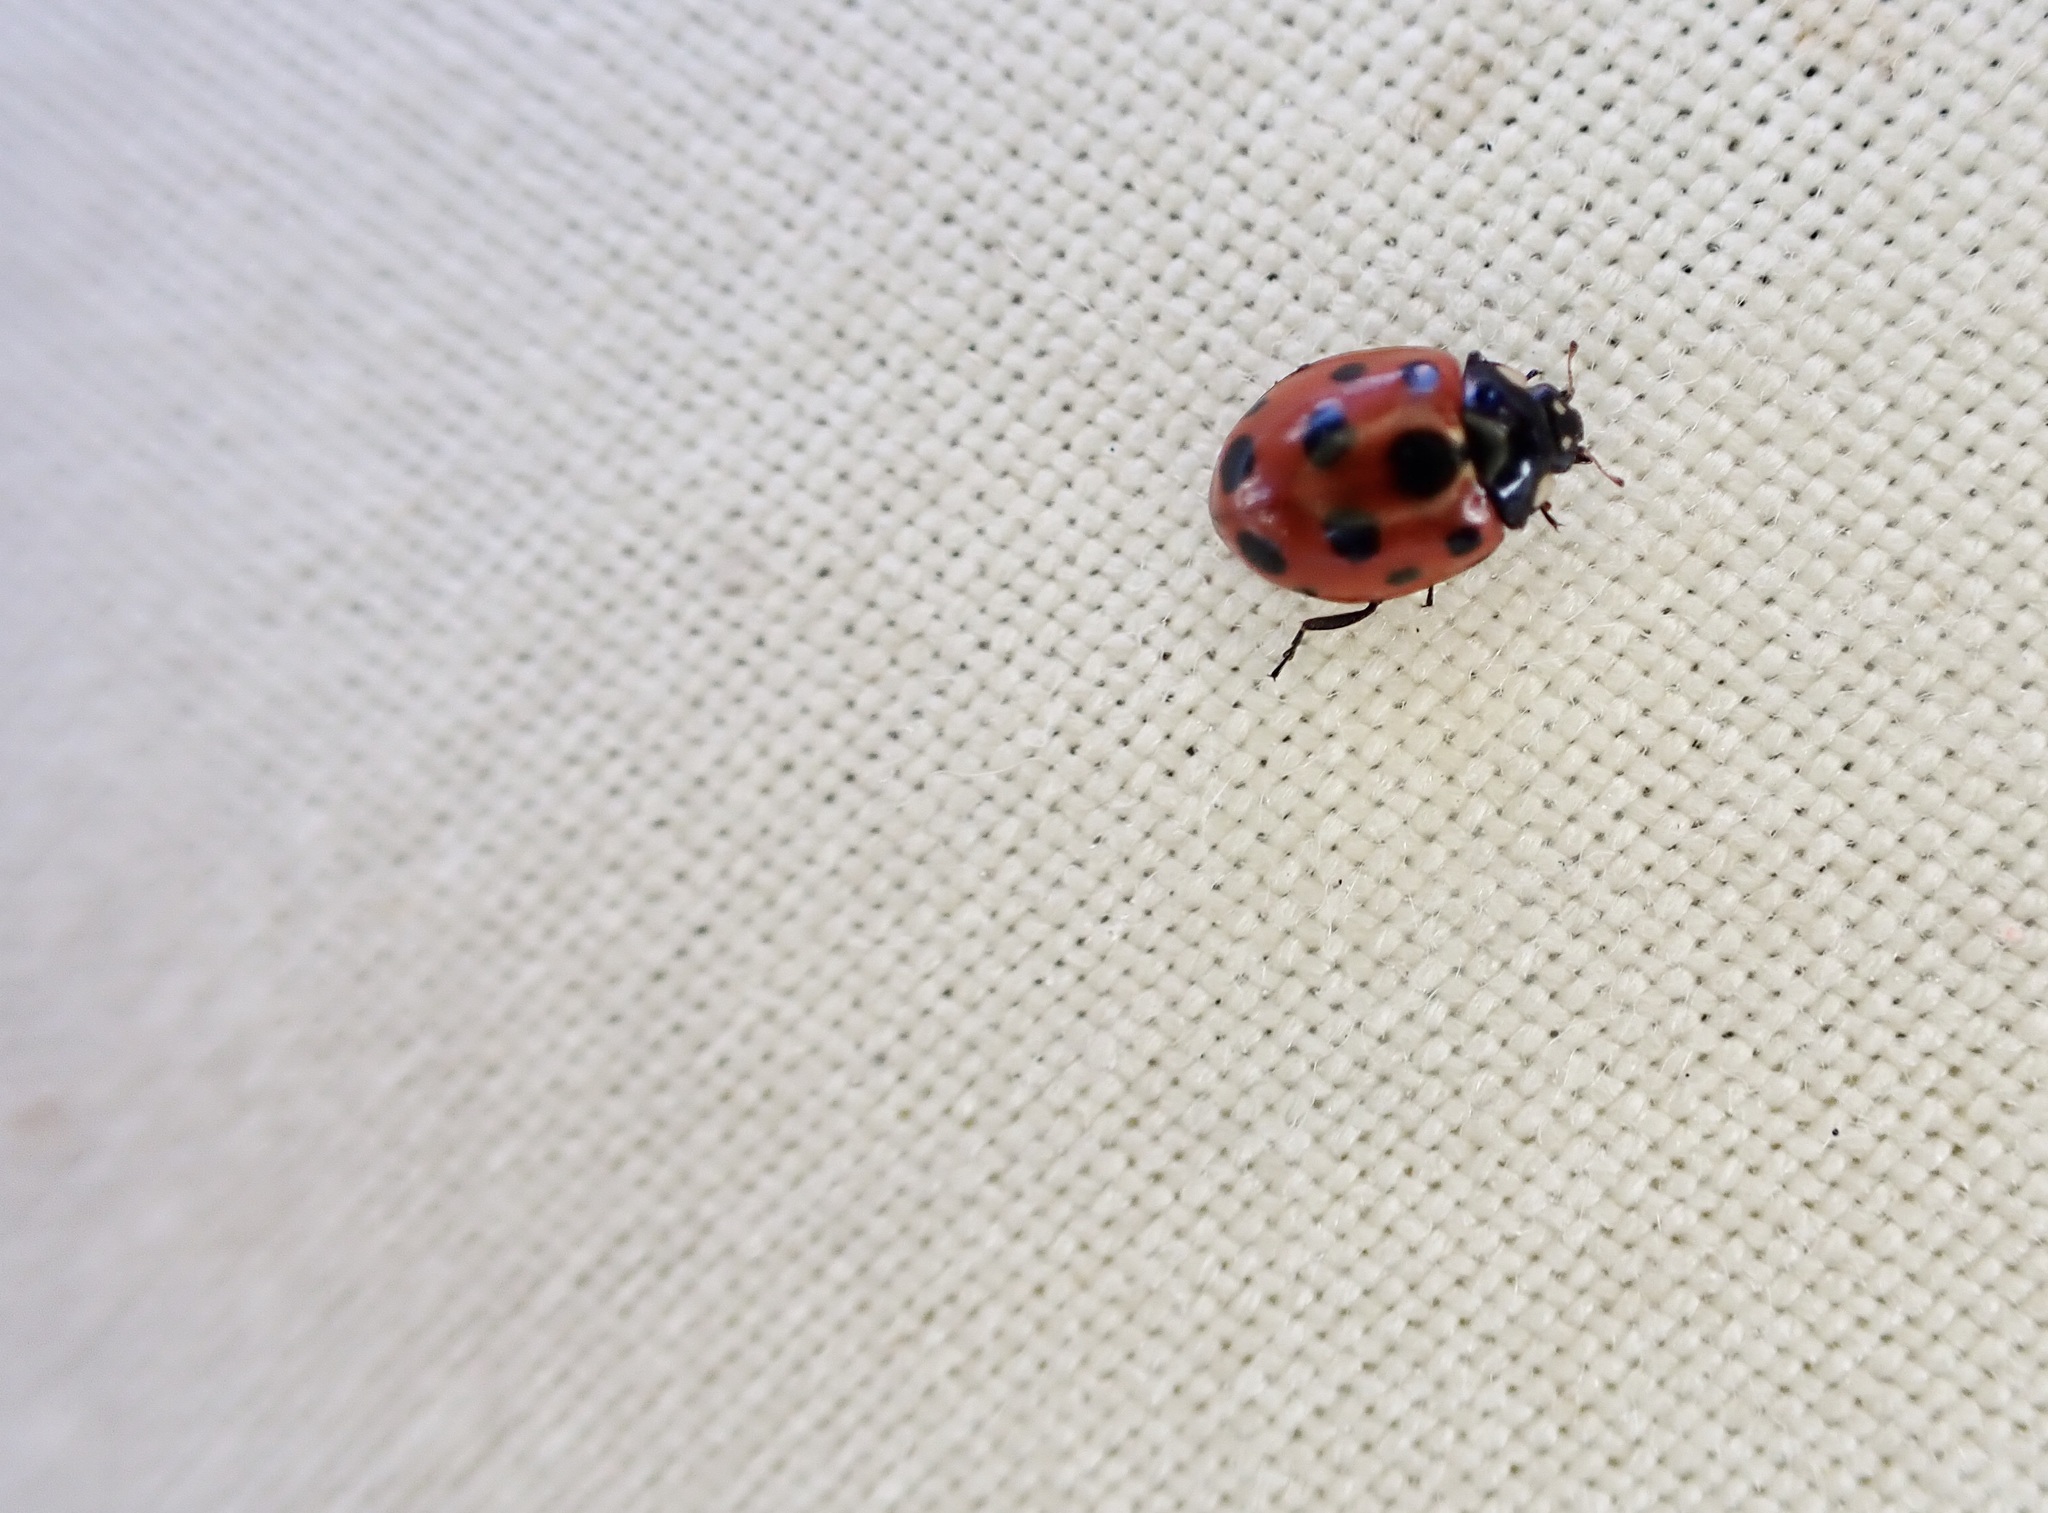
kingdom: Animalia
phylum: Arthropoda
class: Insecta
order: Coleoptera
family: Coccinellidae
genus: Coccinella
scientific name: Coccinella undecimpunctata
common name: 11-spot ladybird
